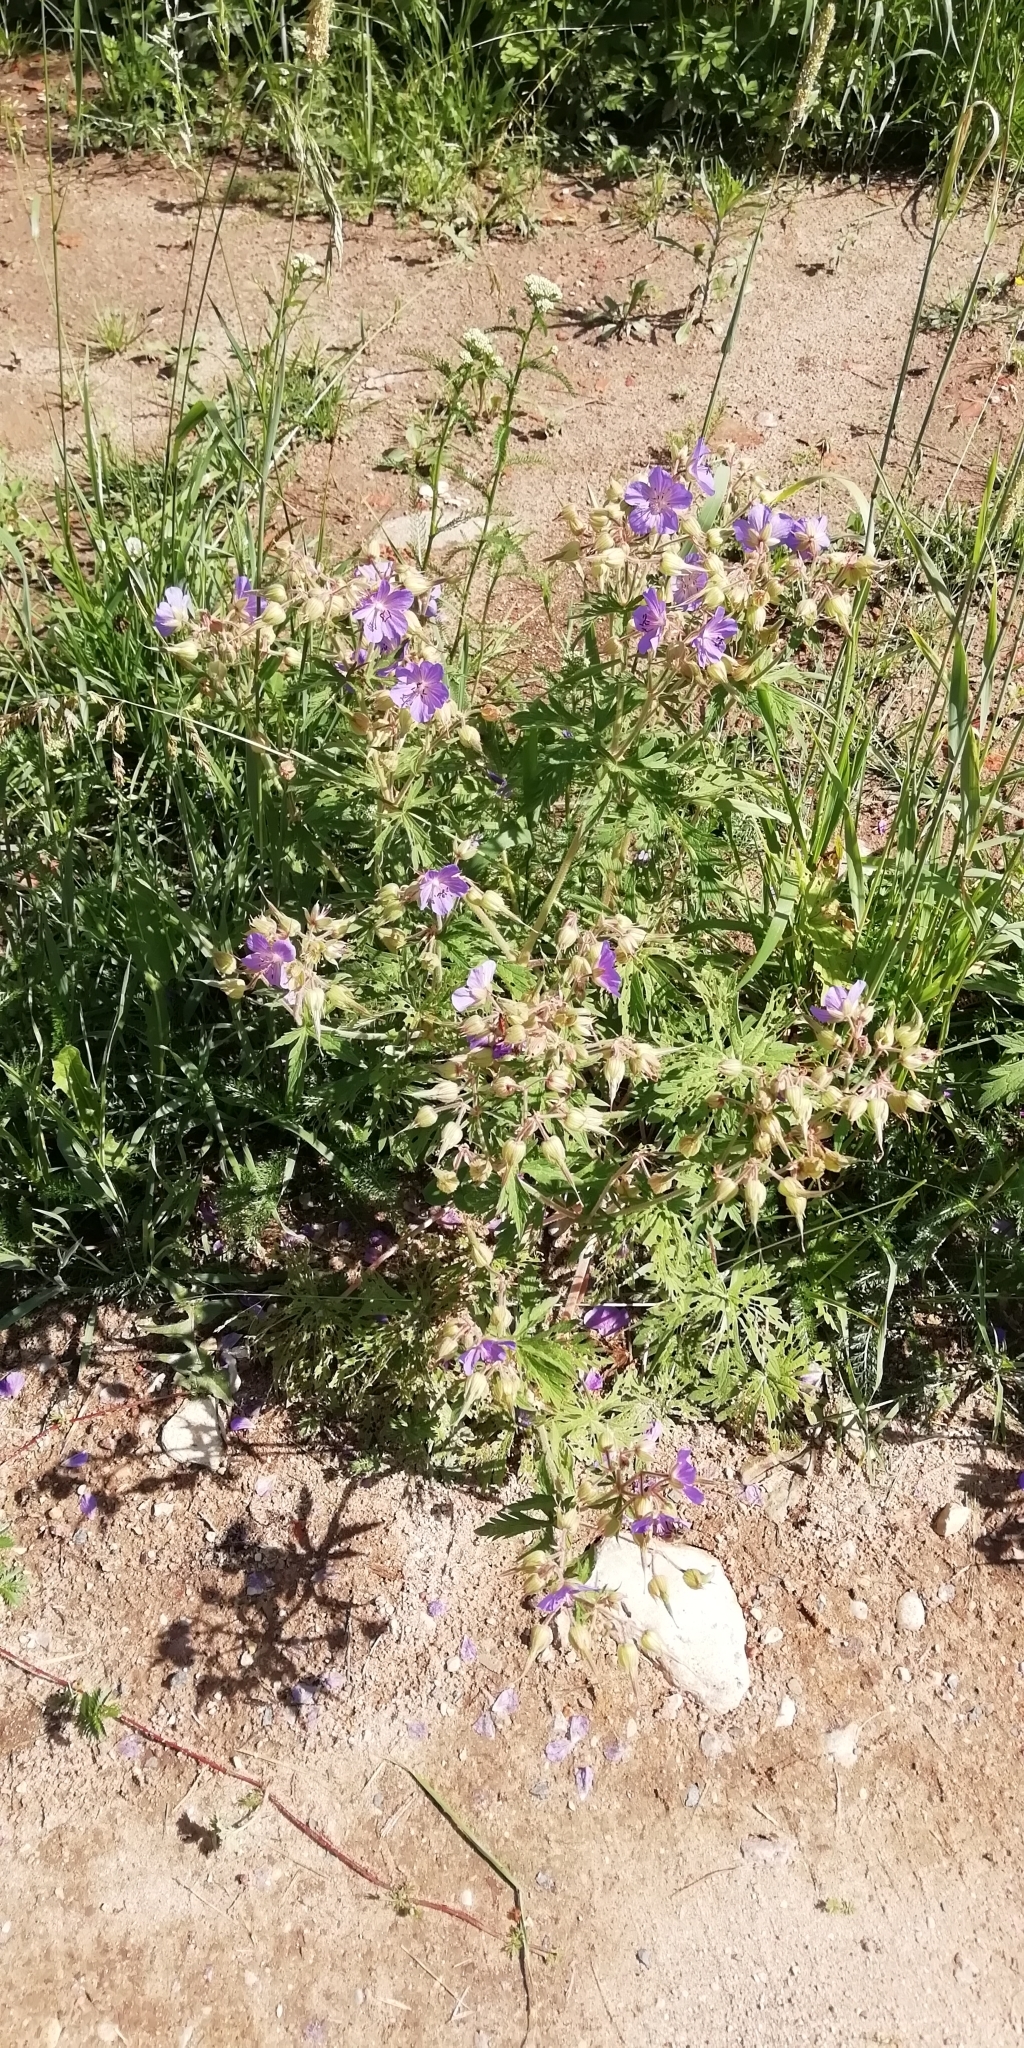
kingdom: Plantae
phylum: Tracheophyta
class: Magnoliopsida
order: Geraniales
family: Geraniaceae
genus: Geranium
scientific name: Geranium pratense
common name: Meadow crane's-bill
